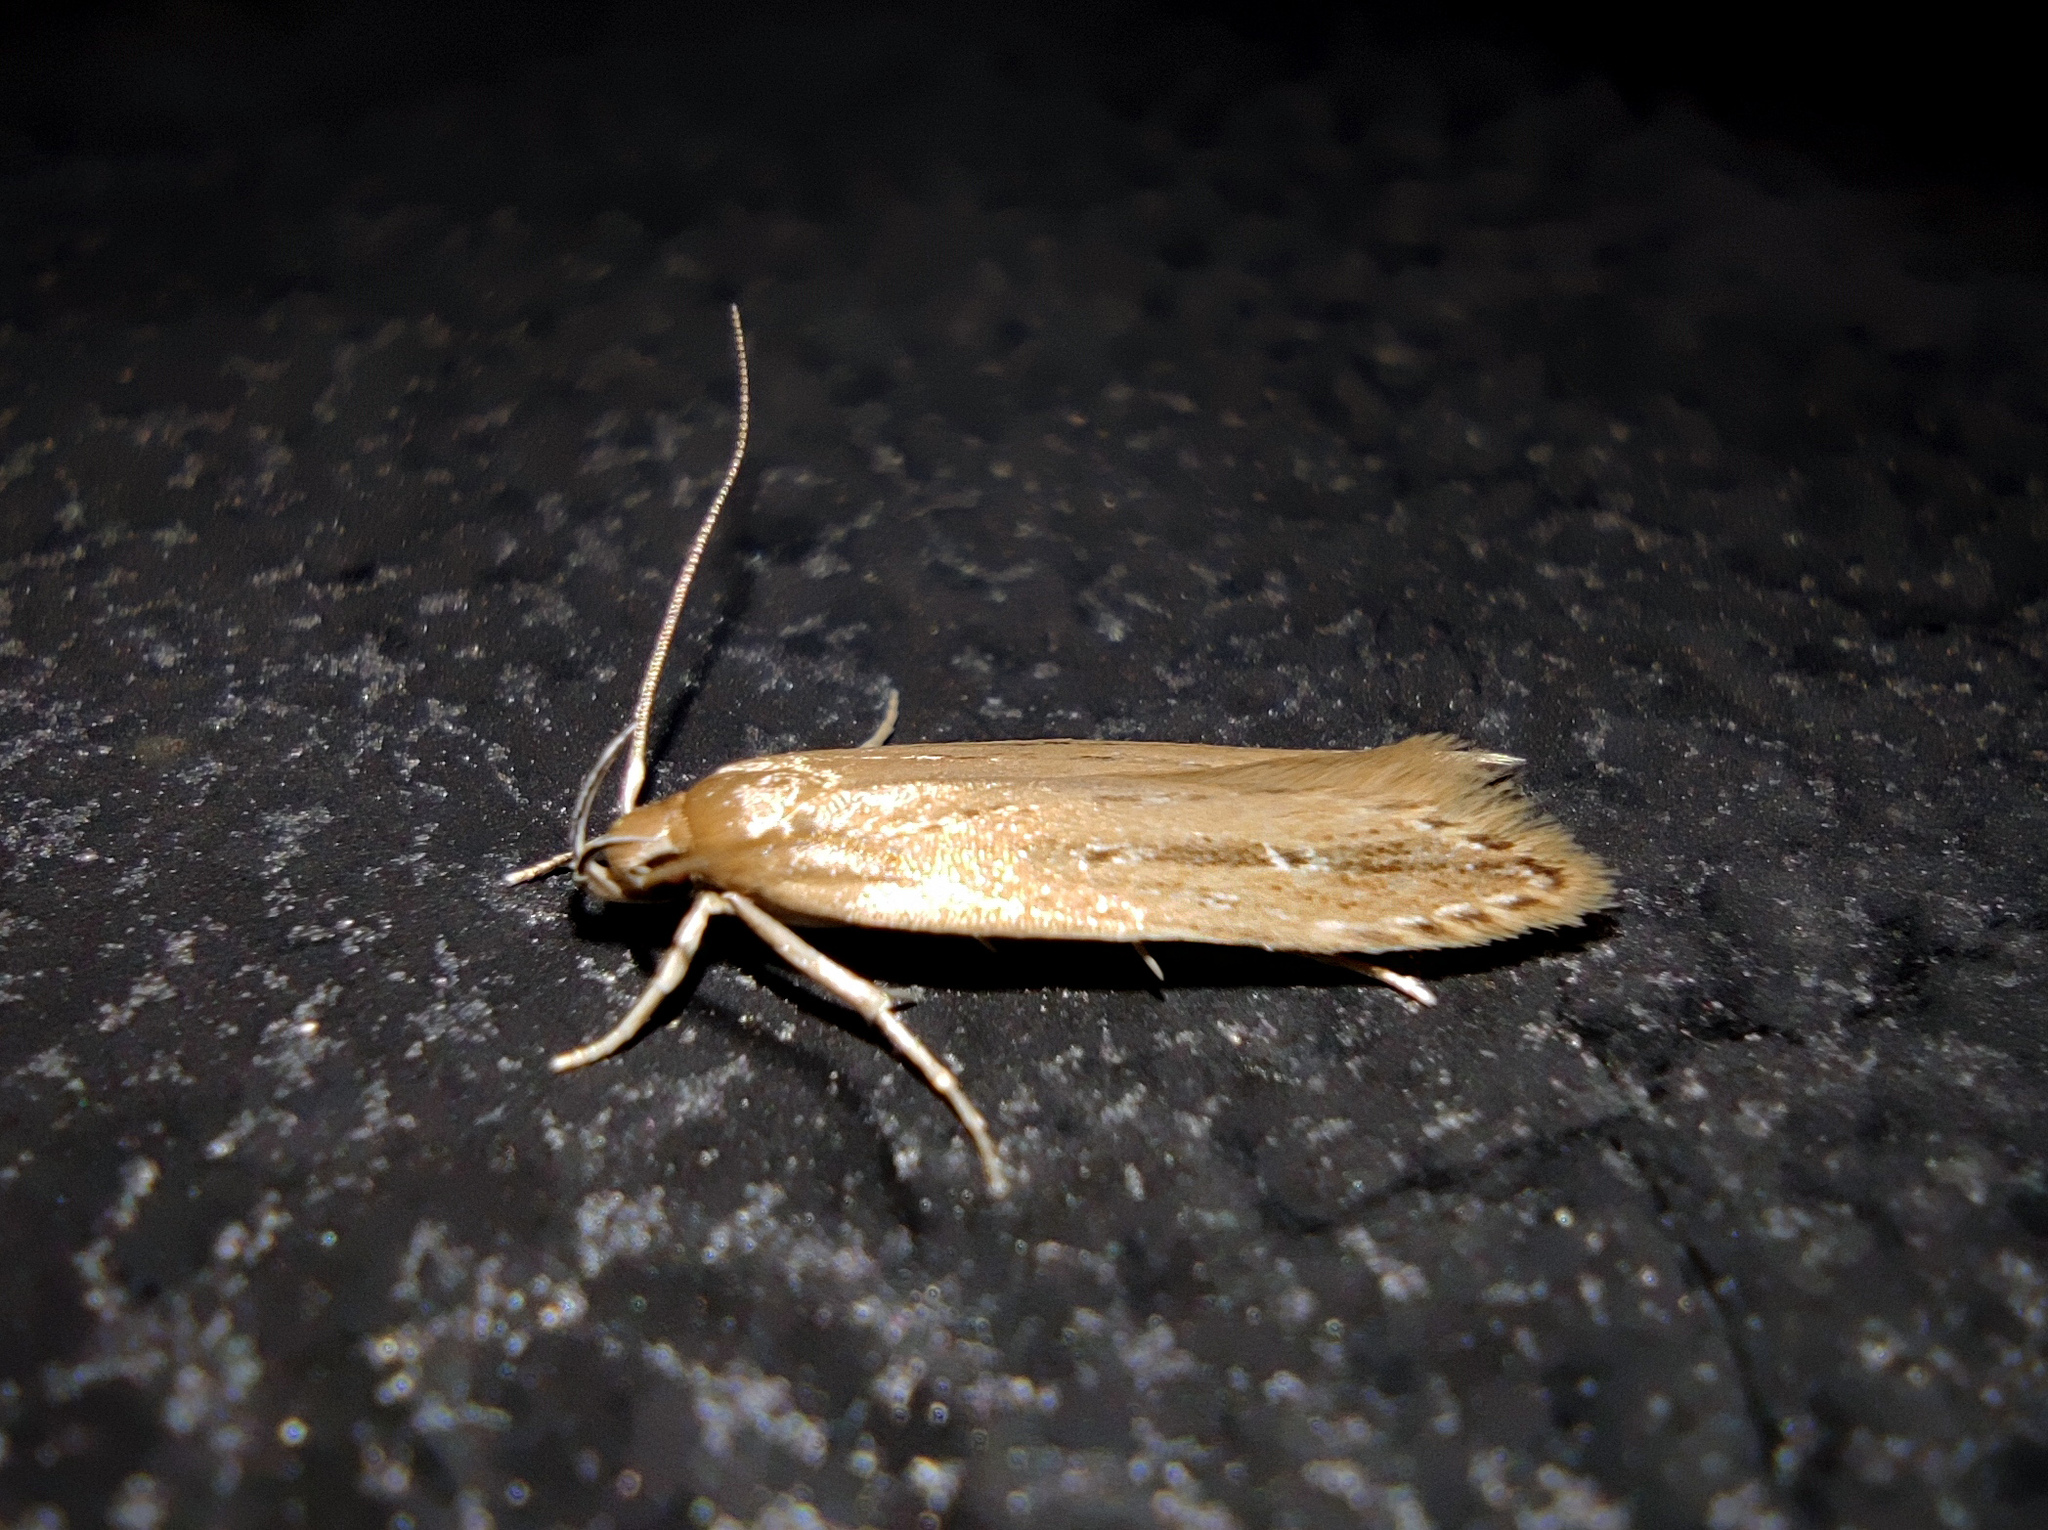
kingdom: Animalia
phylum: Arthropoda
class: Insecta
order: Lepidoptera
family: Cosmopterigidae
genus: Limnaecia
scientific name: Limnaecia phragmitella
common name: Bulrush cosmet
